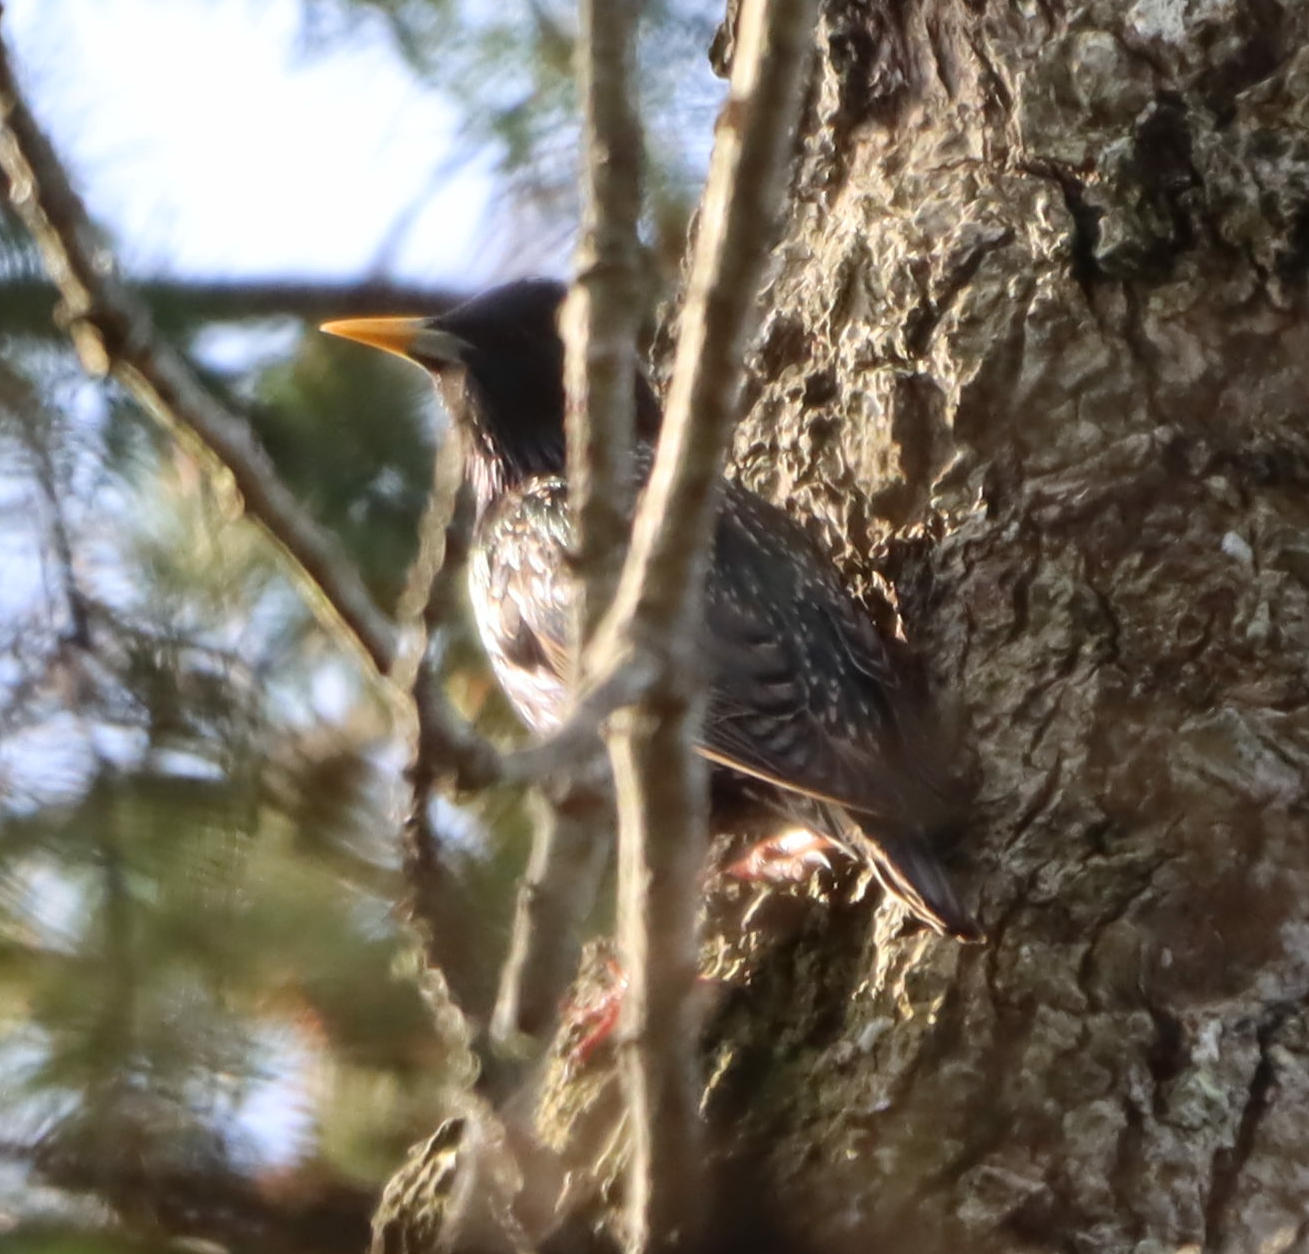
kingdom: Animalia
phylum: Chordata
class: Aves
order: Passeriformes
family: Sturnidae
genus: Sturnus
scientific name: Sturnus vulgaris
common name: Common starling
